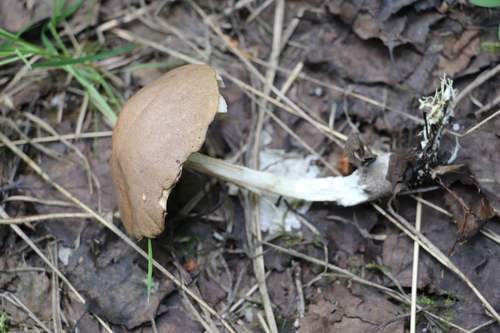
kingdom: Fungi
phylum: Basidiomycota
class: Agaricomycetes
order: Boletales
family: Boletaceae
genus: Leccinum
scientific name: Leccinum
